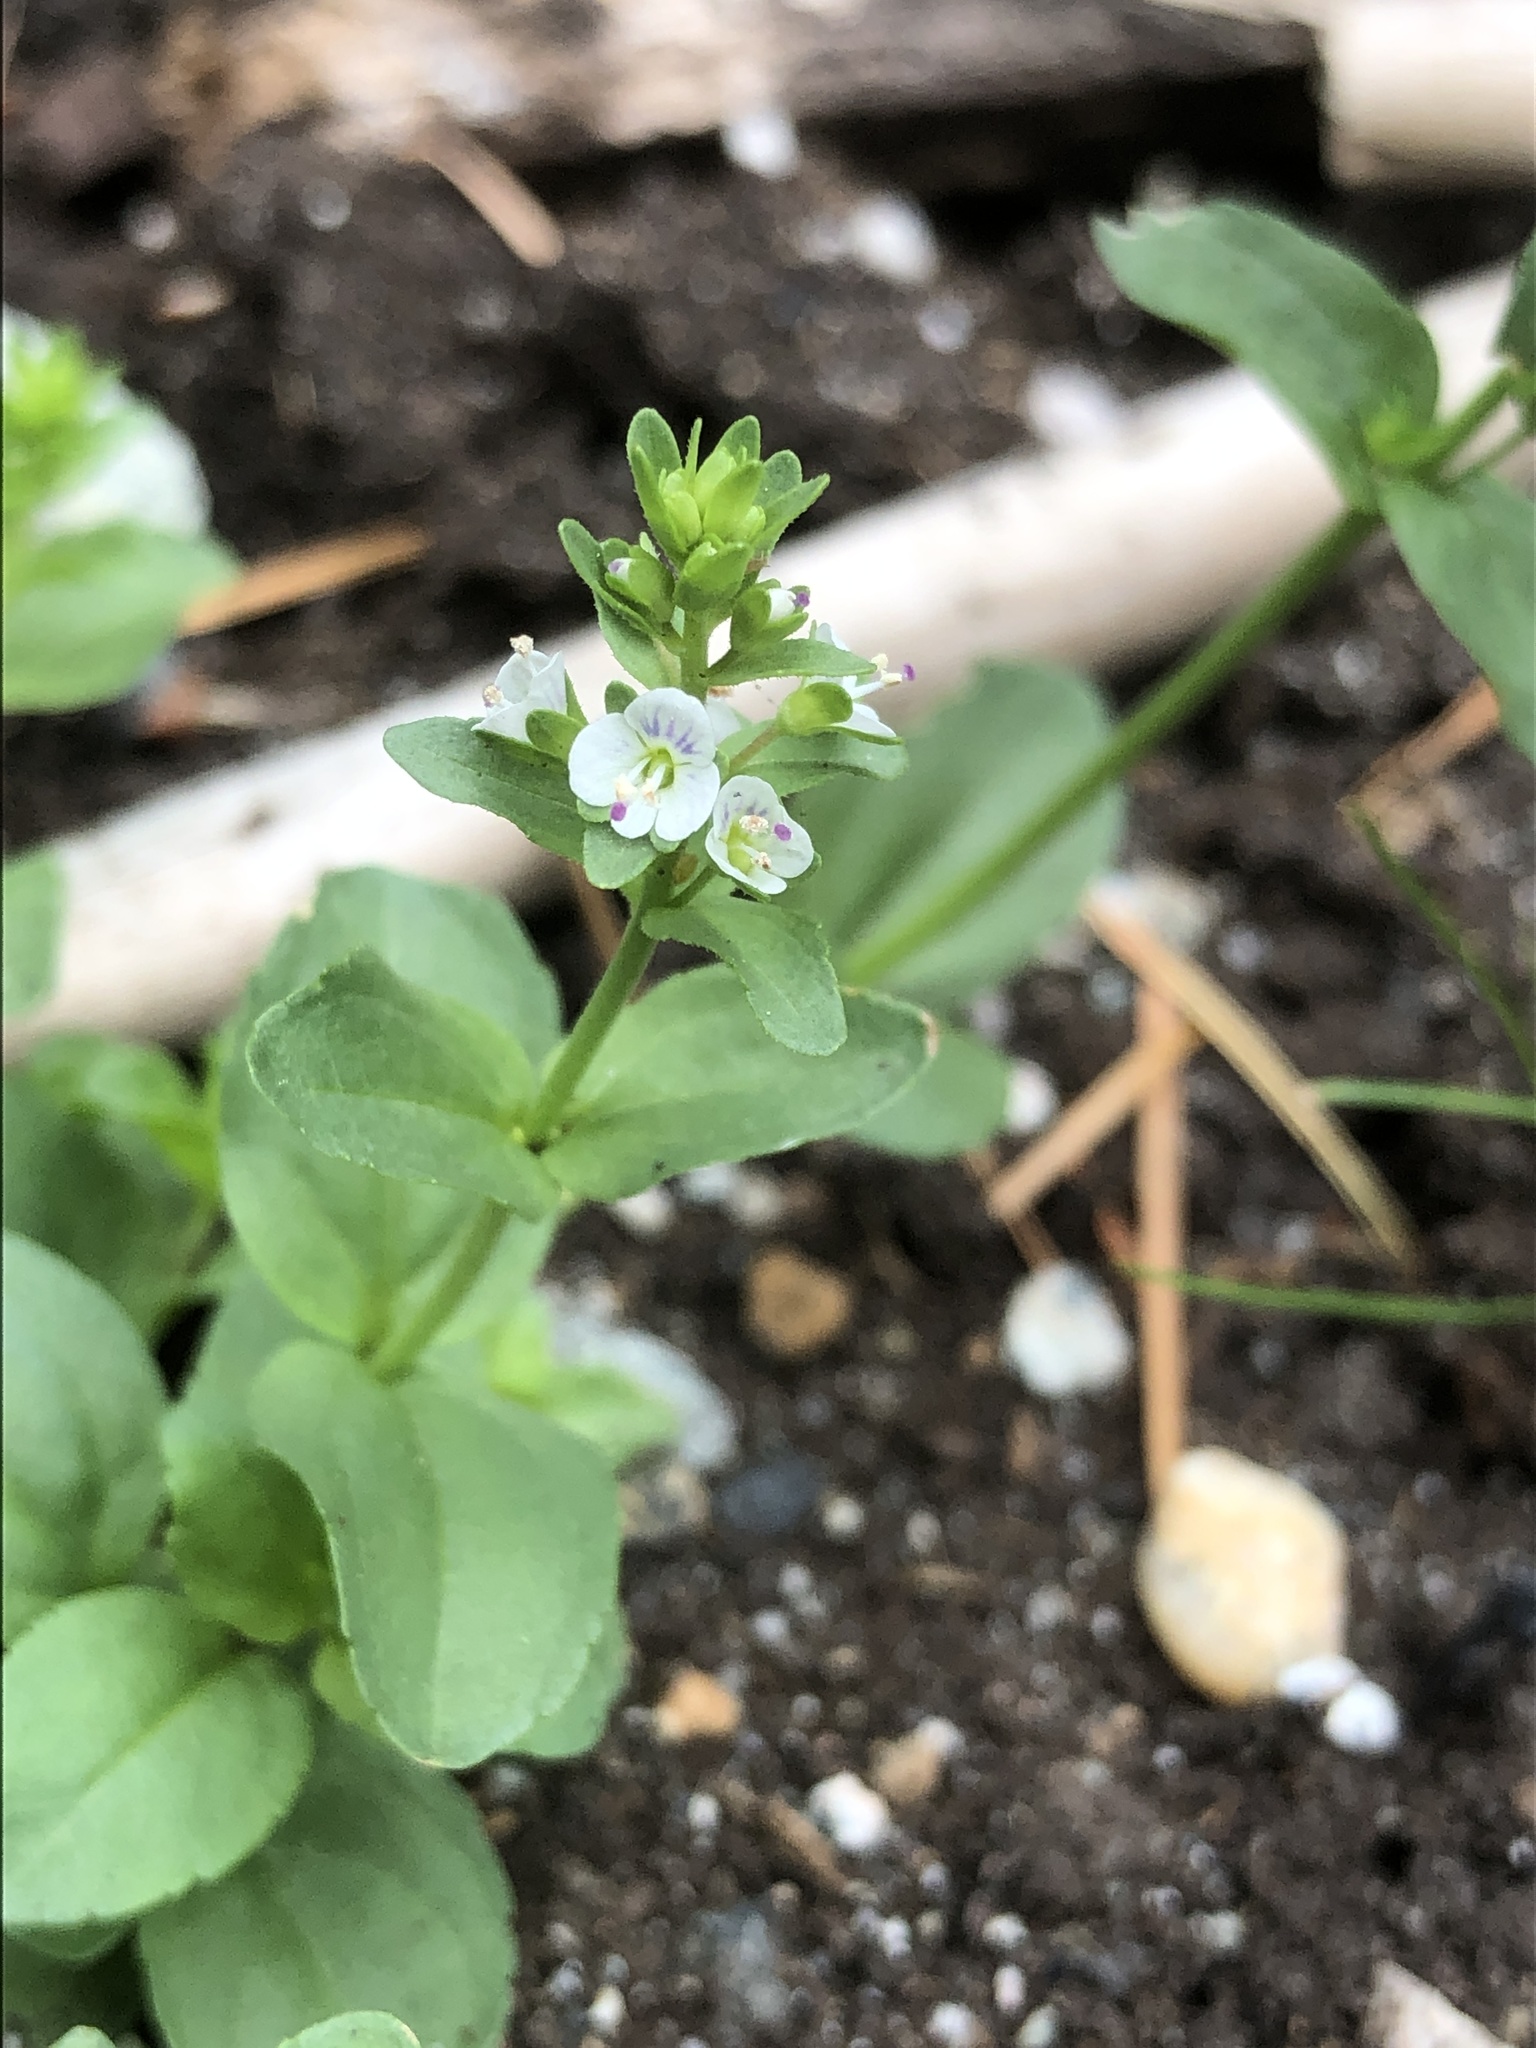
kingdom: Plantae
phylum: Tracheophyta
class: Magnoliopsida
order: Lamiales
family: Plantaginaceae
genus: Veronica
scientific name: Veronica serpyllifolia
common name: Thyme-leaved speedwell
